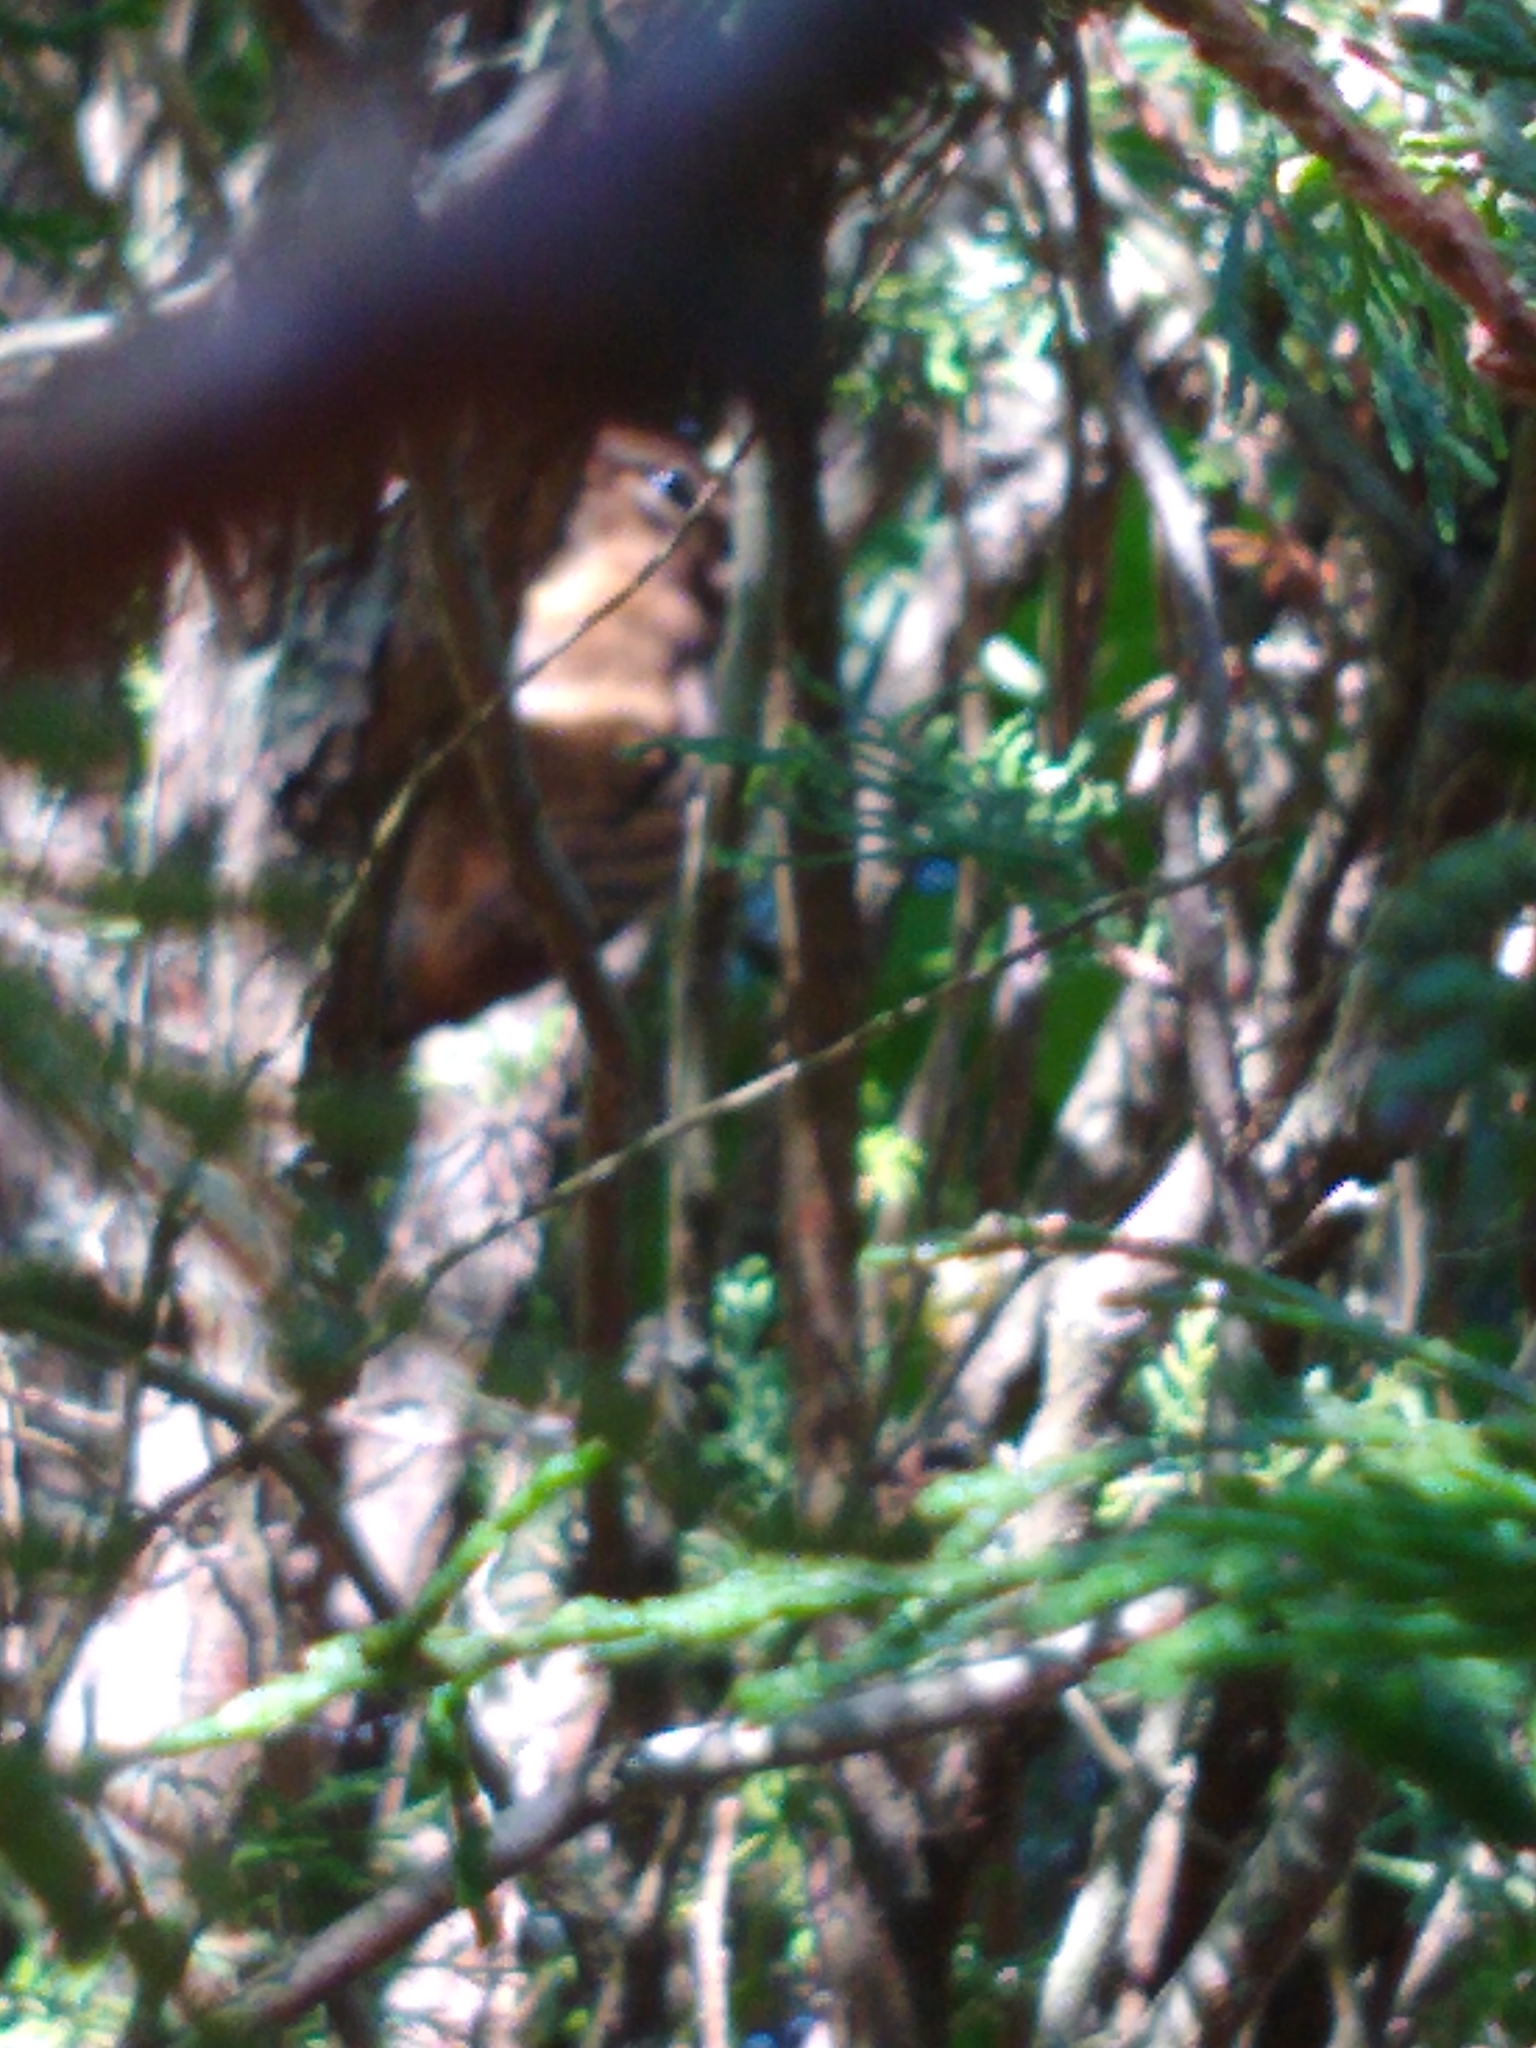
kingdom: Animalia
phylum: Chordata
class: Mammalia
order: Rodentia
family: Sciuridae
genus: Tamias
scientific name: Tamias striatus
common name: Eastern chipmunk
